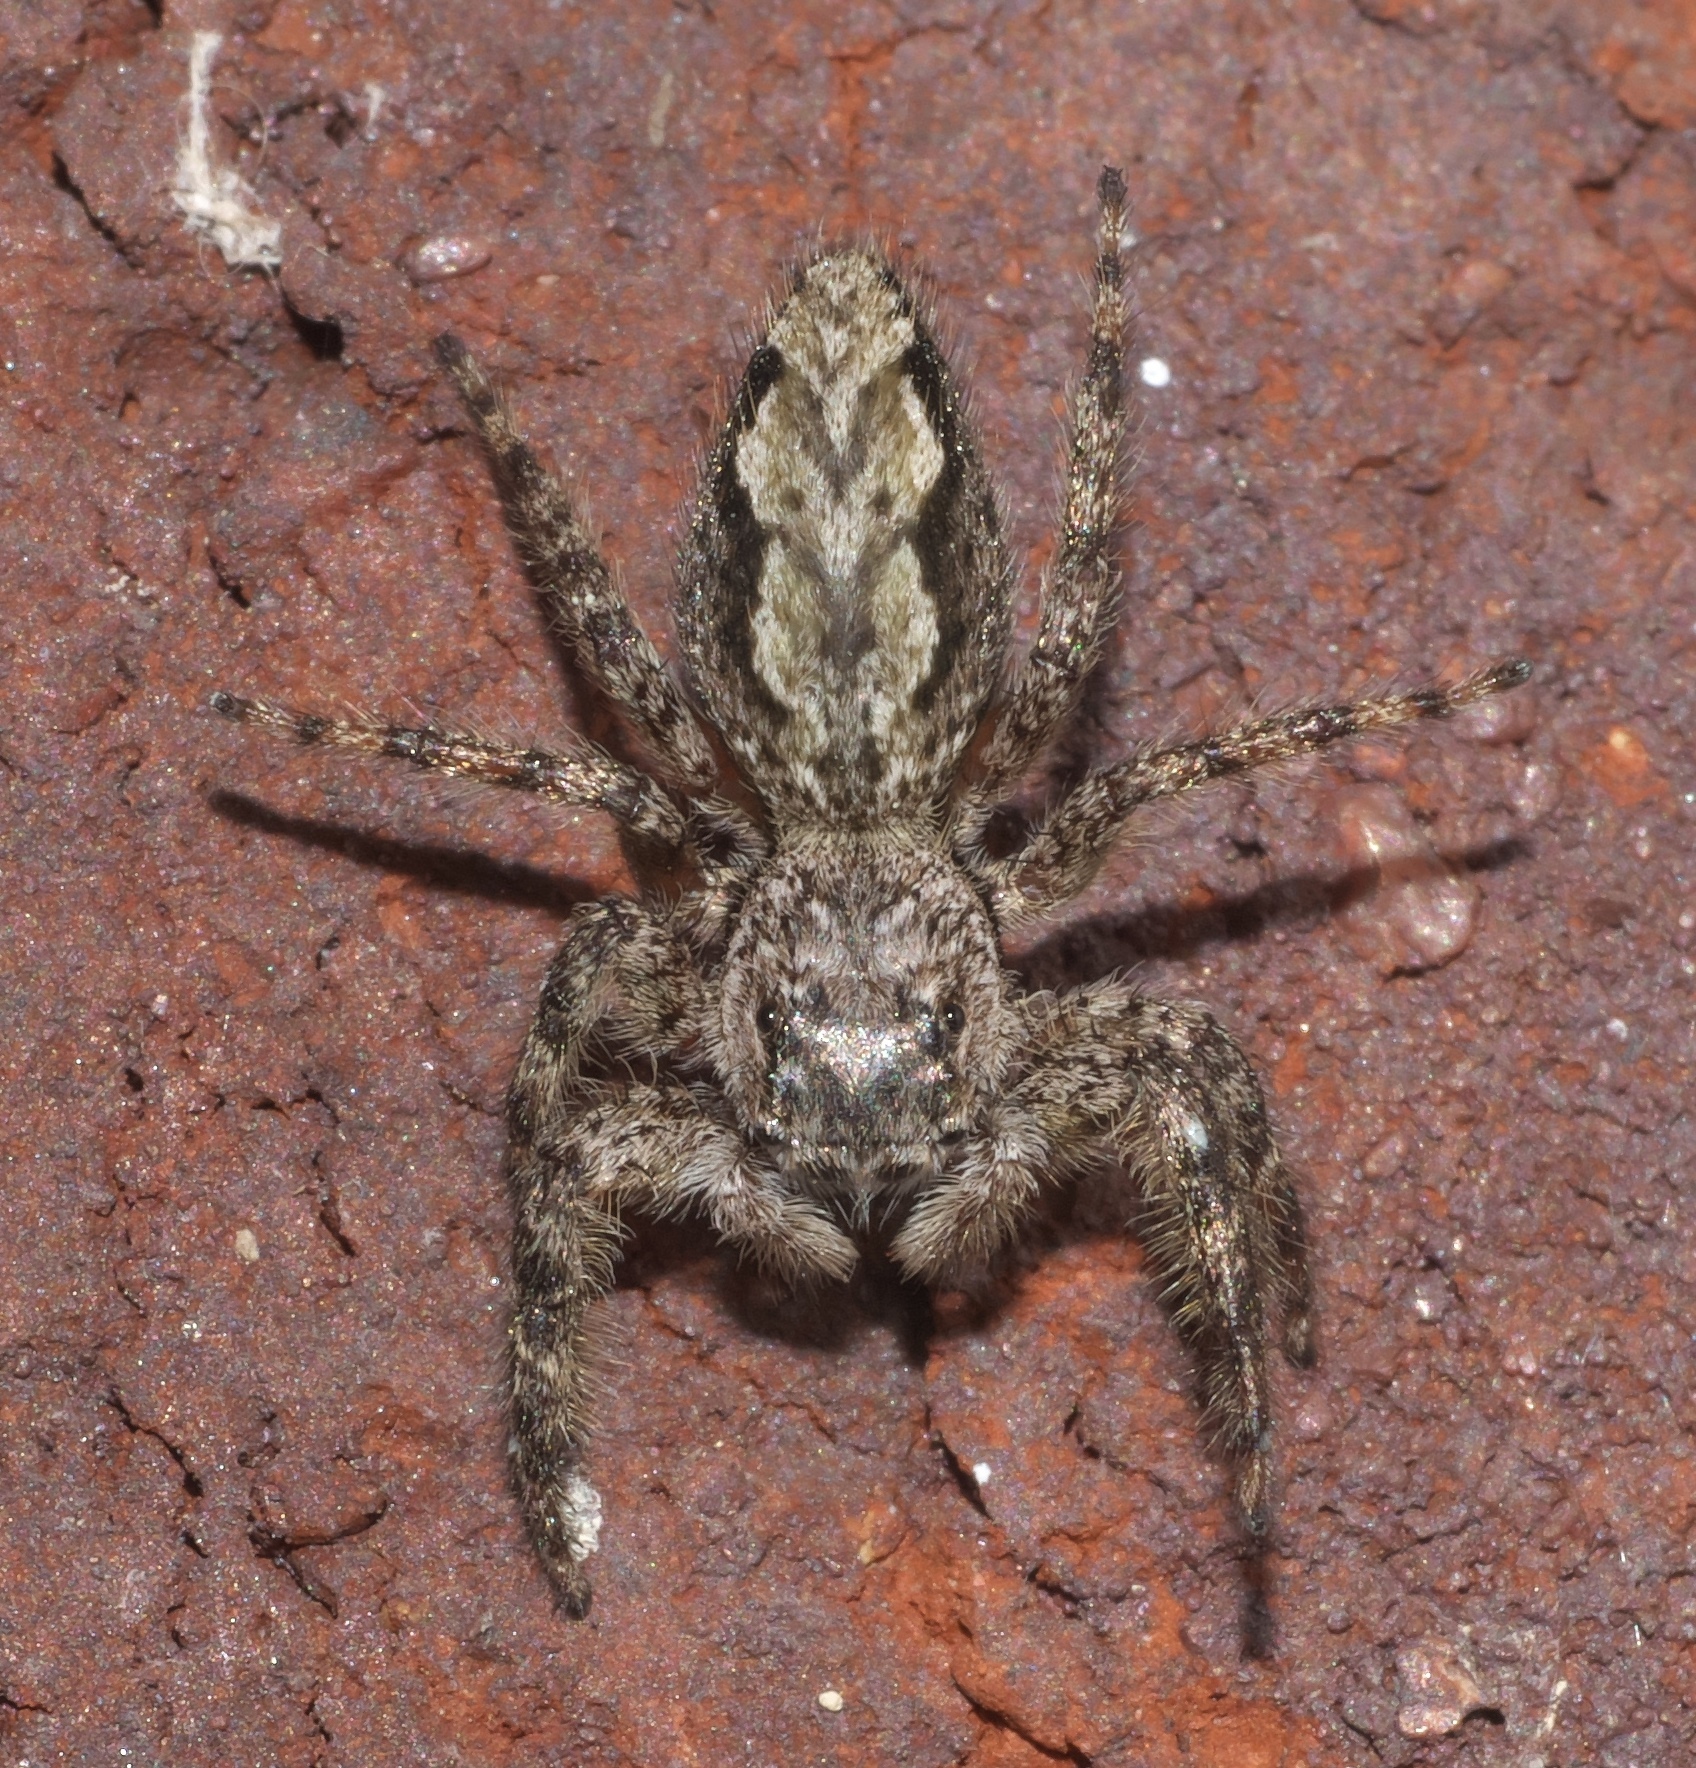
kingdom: Animalia
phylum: Arthropoda
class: Arachnida
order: Araneae
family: Salticidae
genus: Platycryptus
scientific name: Platycryptus undatus
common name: Tan jumping spider
